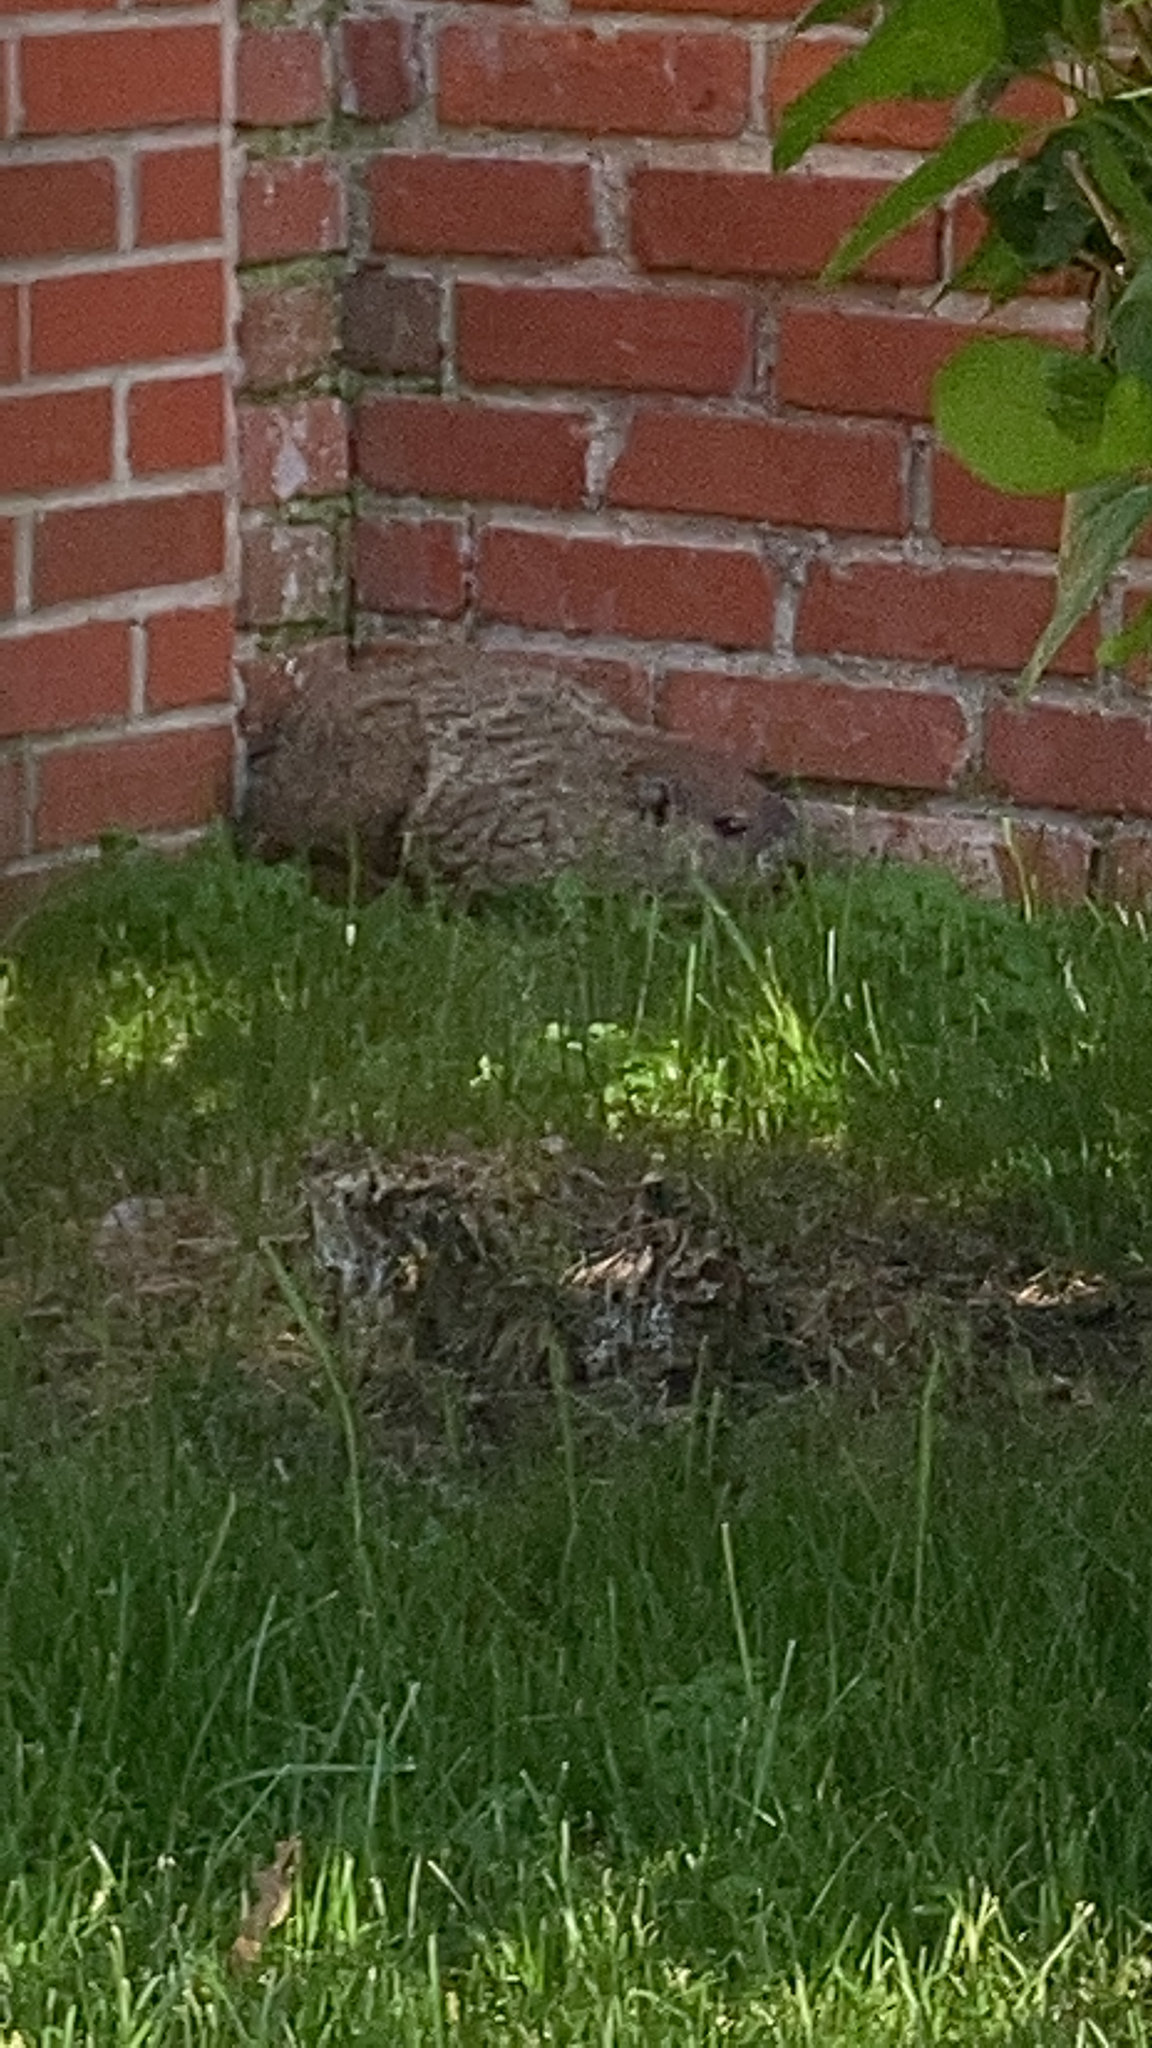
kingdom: Animalia
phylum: Chordata
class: Mammalia
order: Rodentia
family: Sciuridae
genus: Marmota
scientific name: Marmota monax
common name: Groundhog
